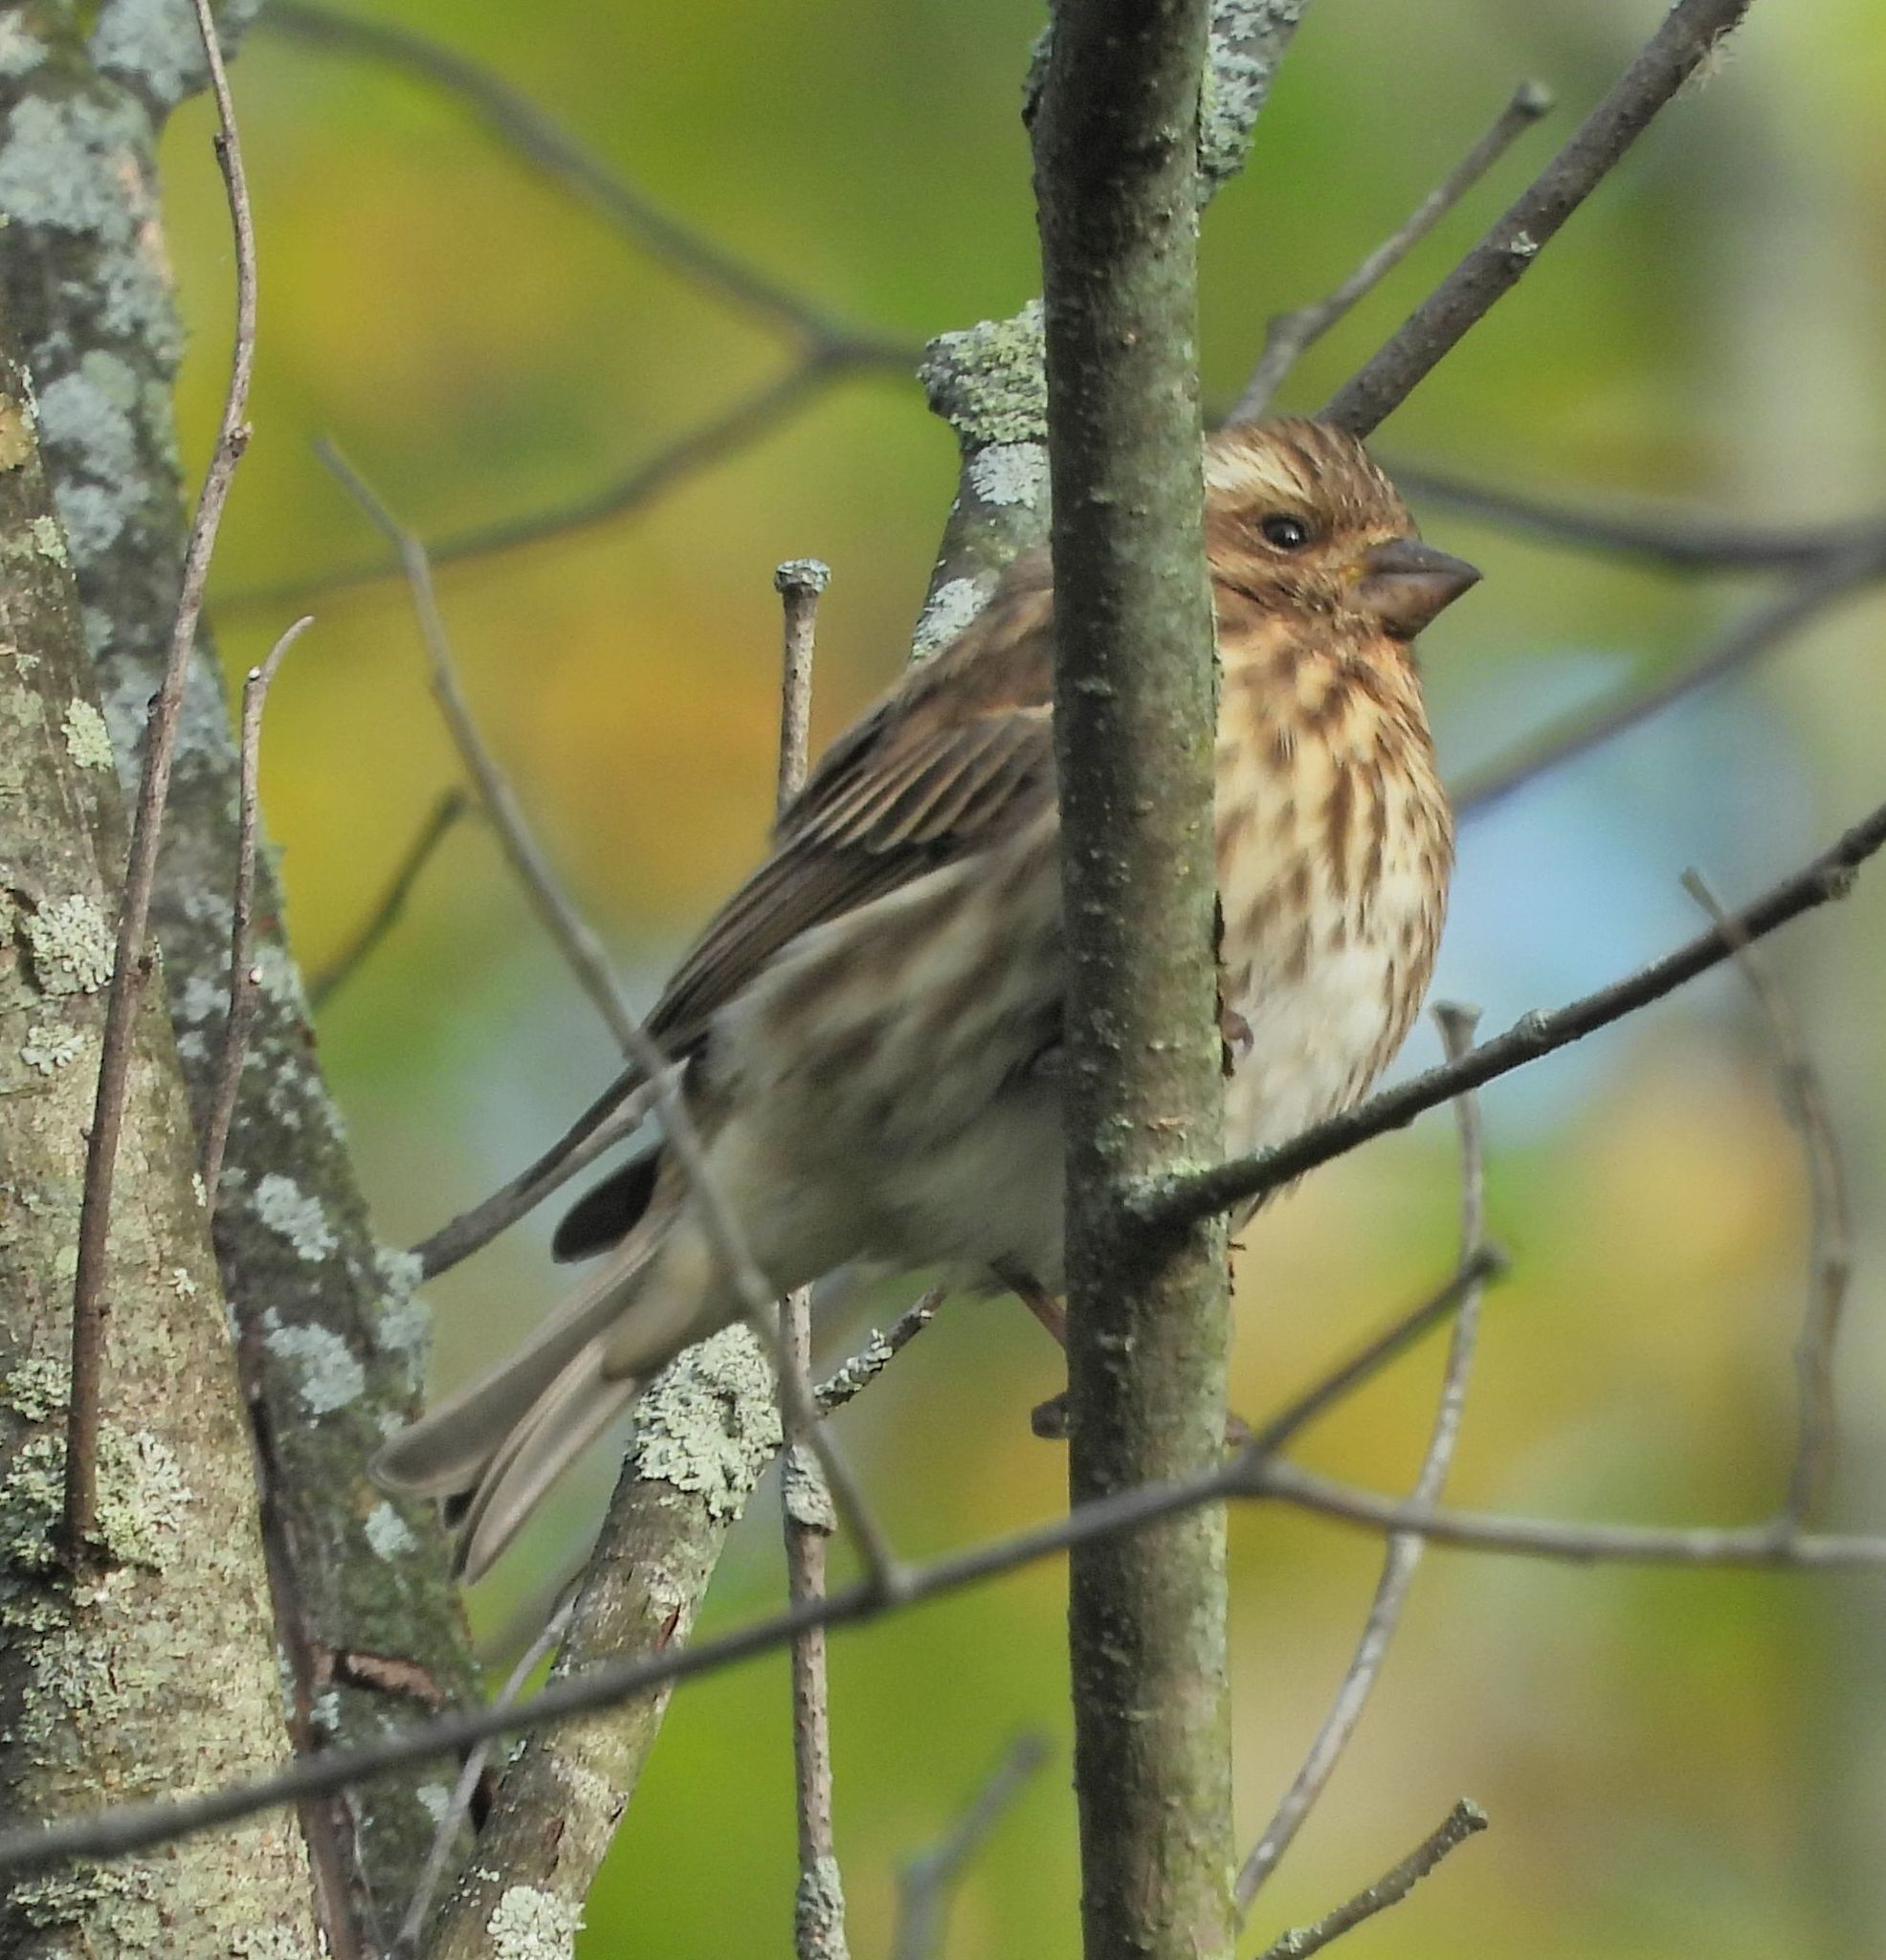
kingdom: Animalia
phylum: Chordata
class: Aves
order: Passeriformes
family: Fringillidae
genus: Haemorhous
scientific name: Haemorhous purpureus
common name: Purple finch
